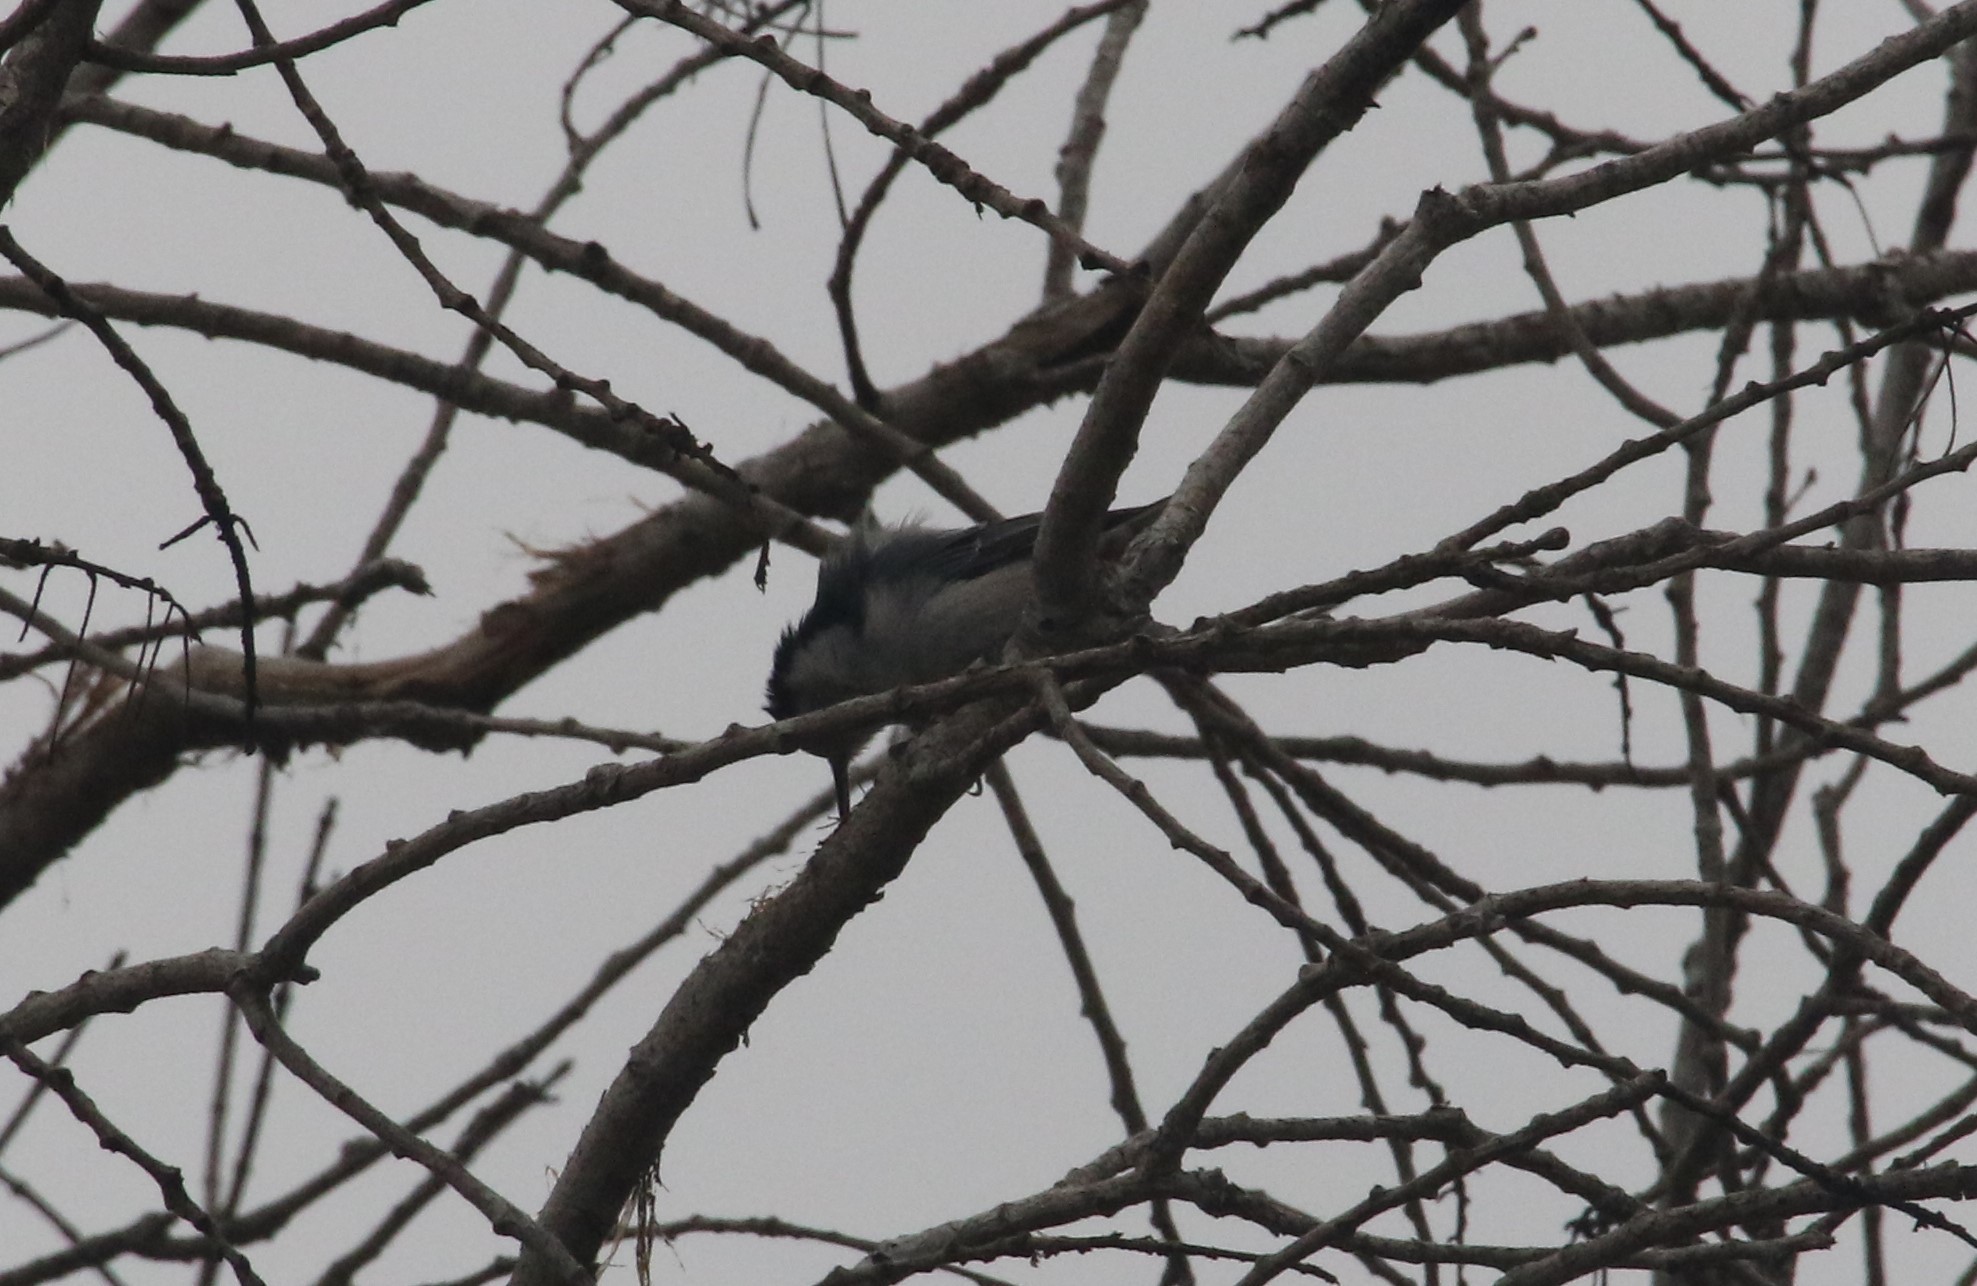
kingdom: Animalia
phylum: Chordata
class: Aves
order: Passeriformes
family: Sittidae
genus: Sitta
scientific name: Sitta carolinensis
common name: White-breasted nuthatch
